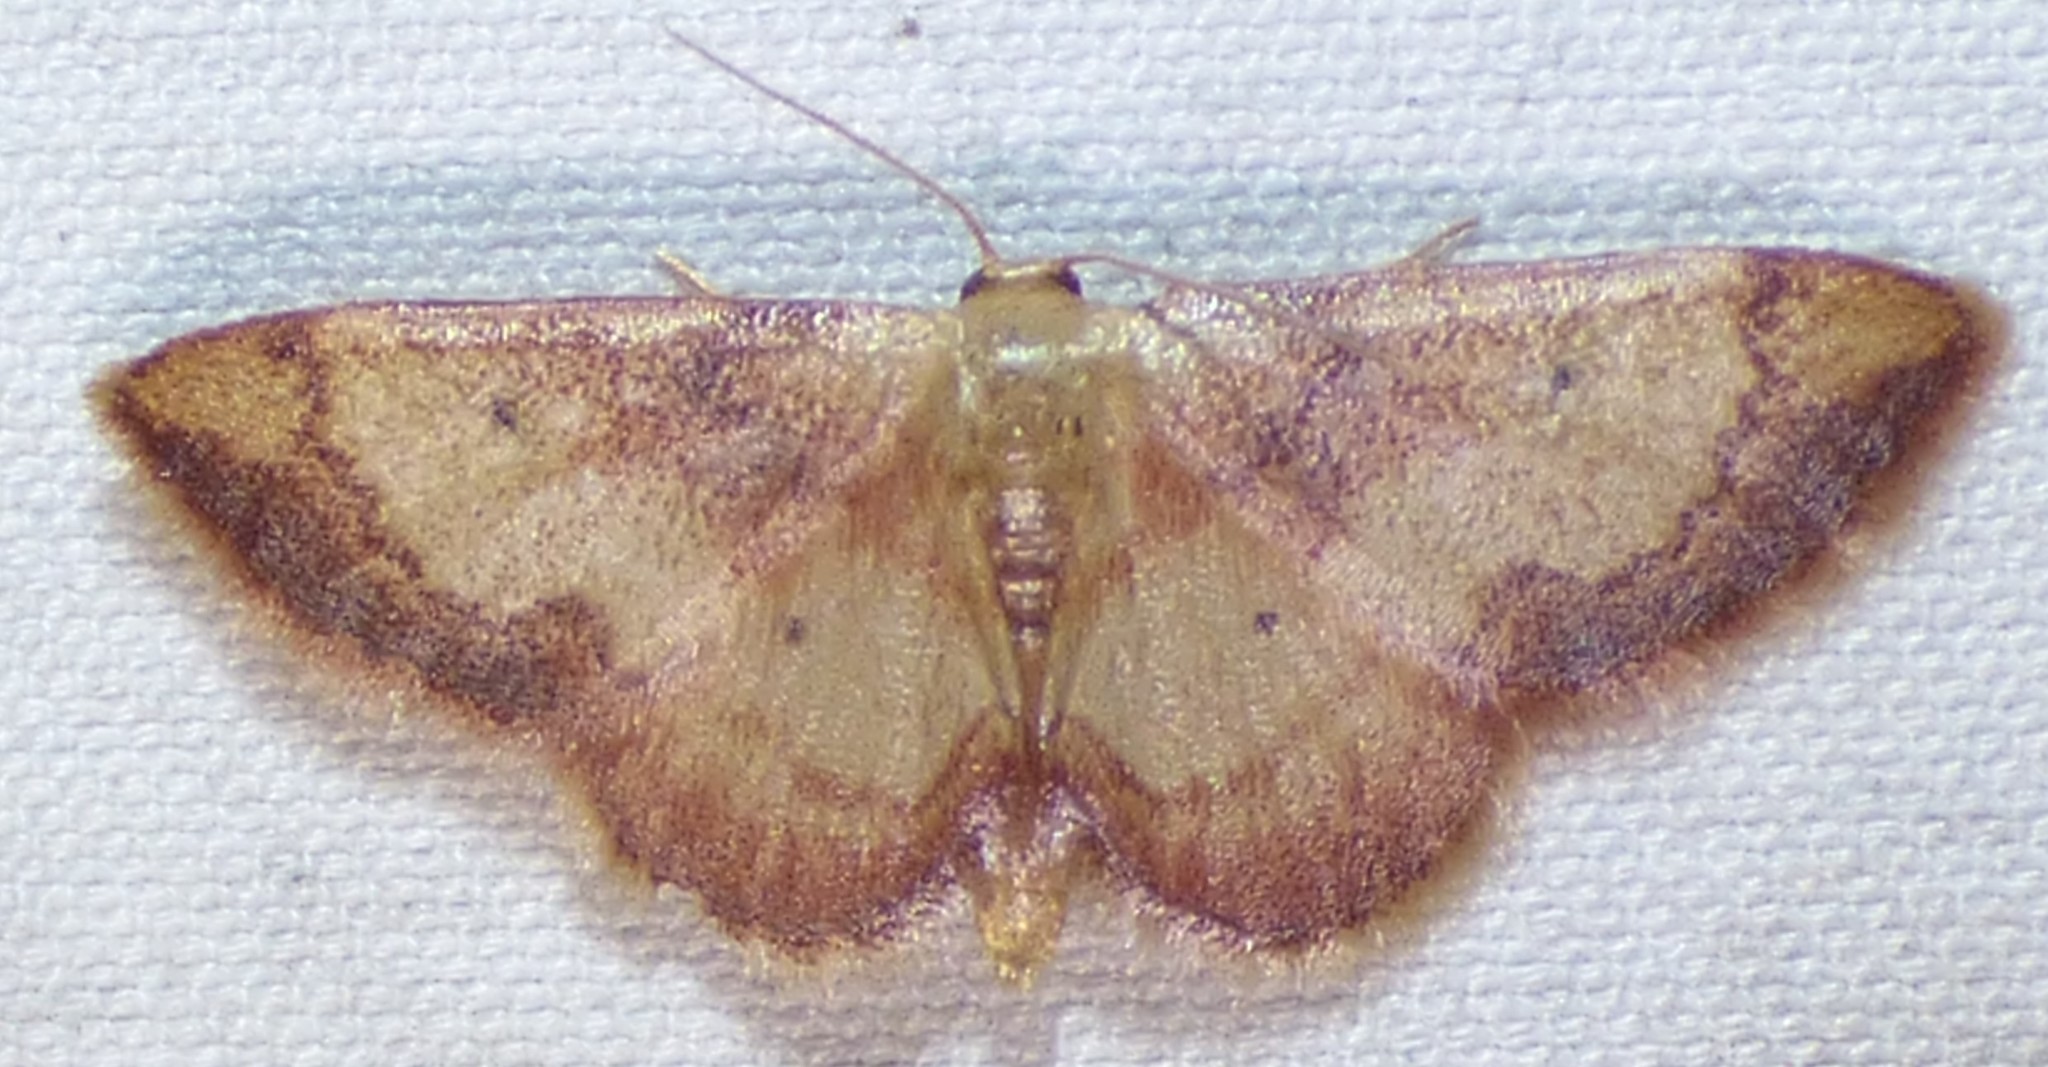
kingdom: Animalia
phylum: Arthropoda
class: Insecta
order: Lepidoptera
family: Geometridae
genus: Idaea
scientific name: Idaea demissaria
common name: Red-bordered wave
